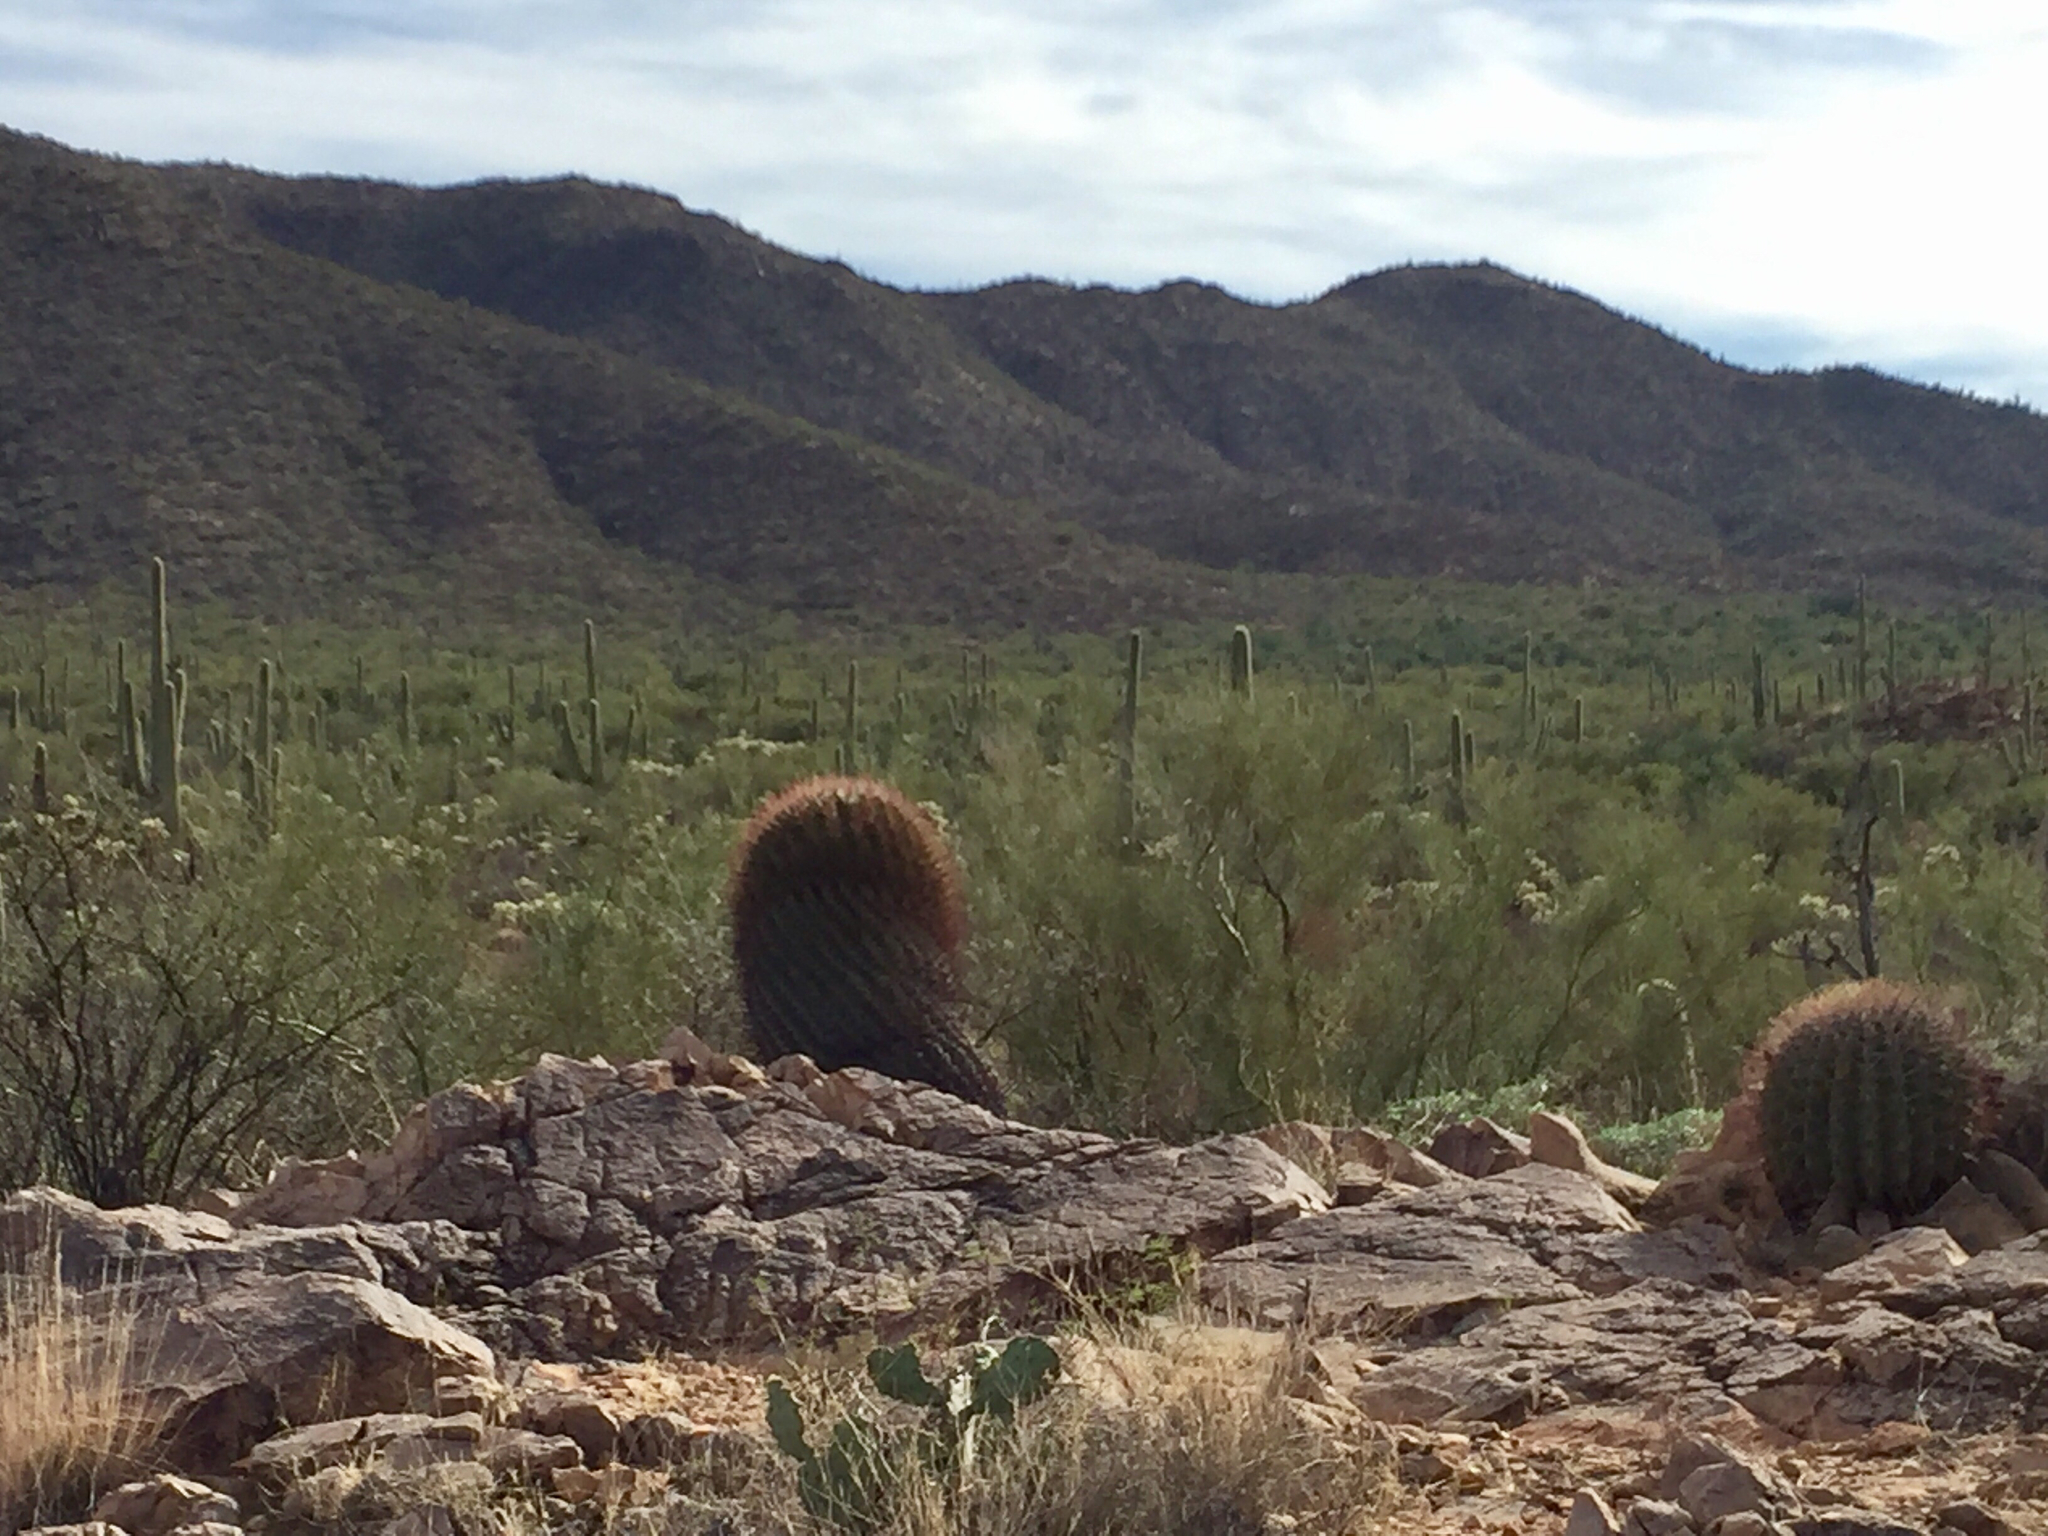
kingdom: Plantae
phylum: Tracheophyta
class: Magnoliopsida
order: Caryophyllales
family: Cactaceae
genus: Ferocactus
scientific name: Ferocactus wislizeni
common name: Candy barrel cactus
